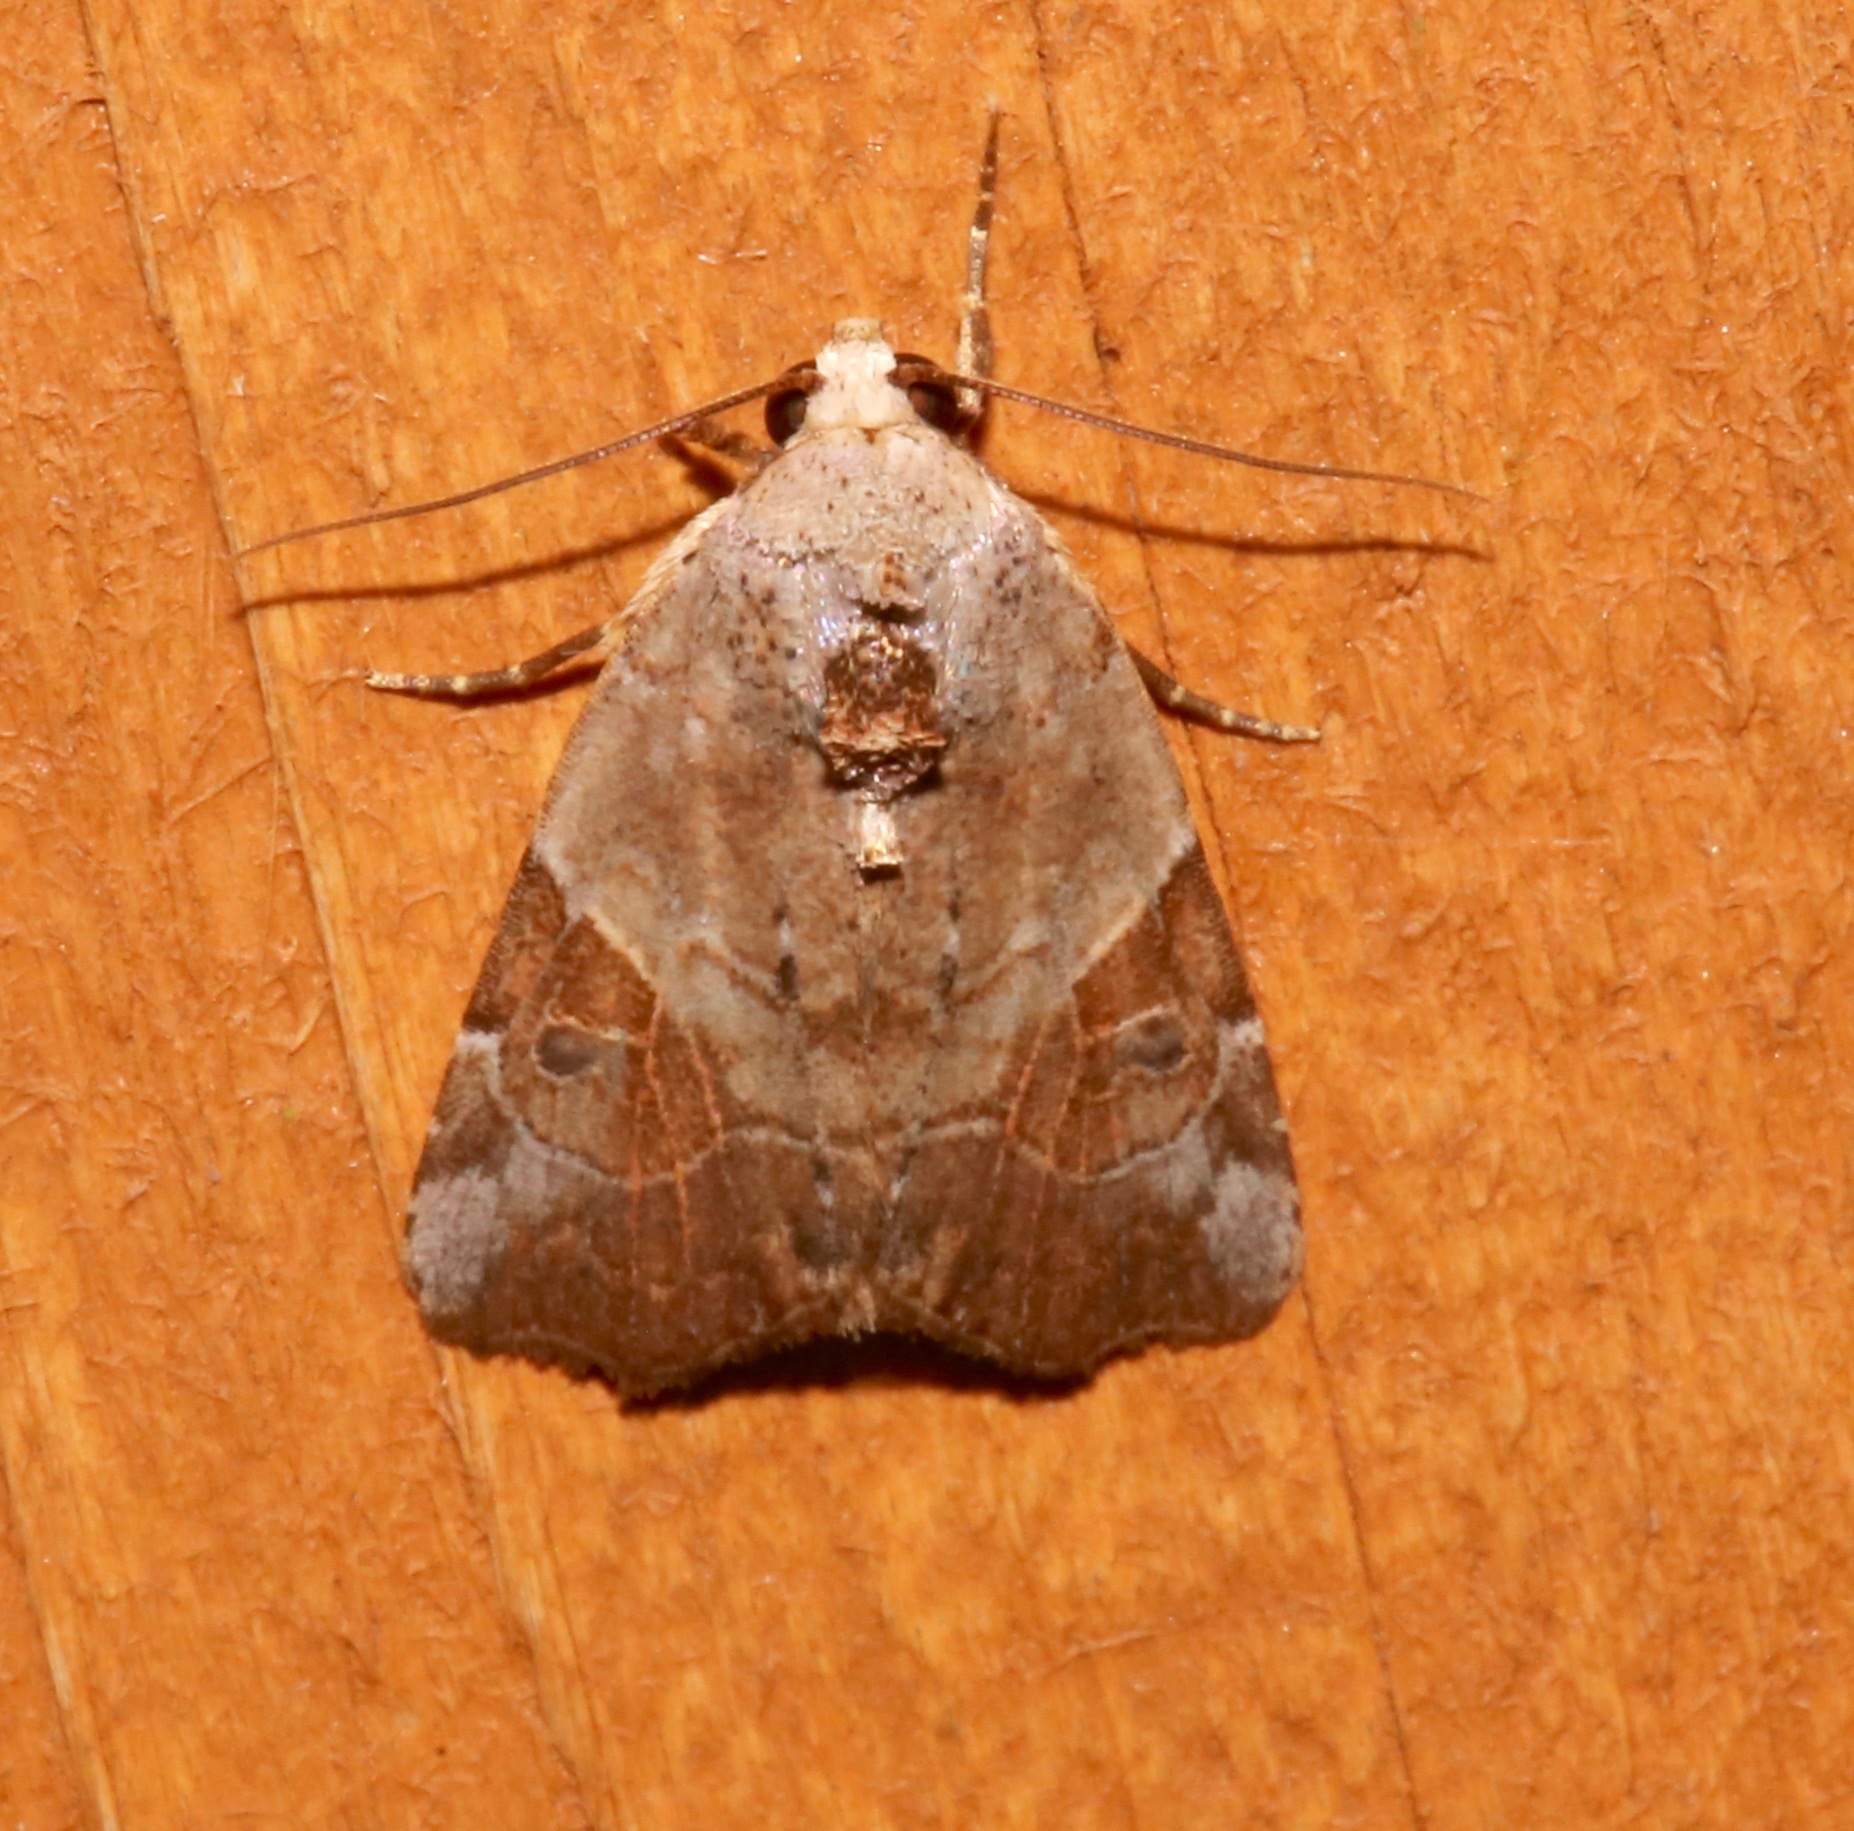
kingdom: Animalia
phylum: Arthropoda
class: Insecta
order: Lepidoptera
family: Noctuidae
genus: Gonodes
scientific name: Gonodes liquida
